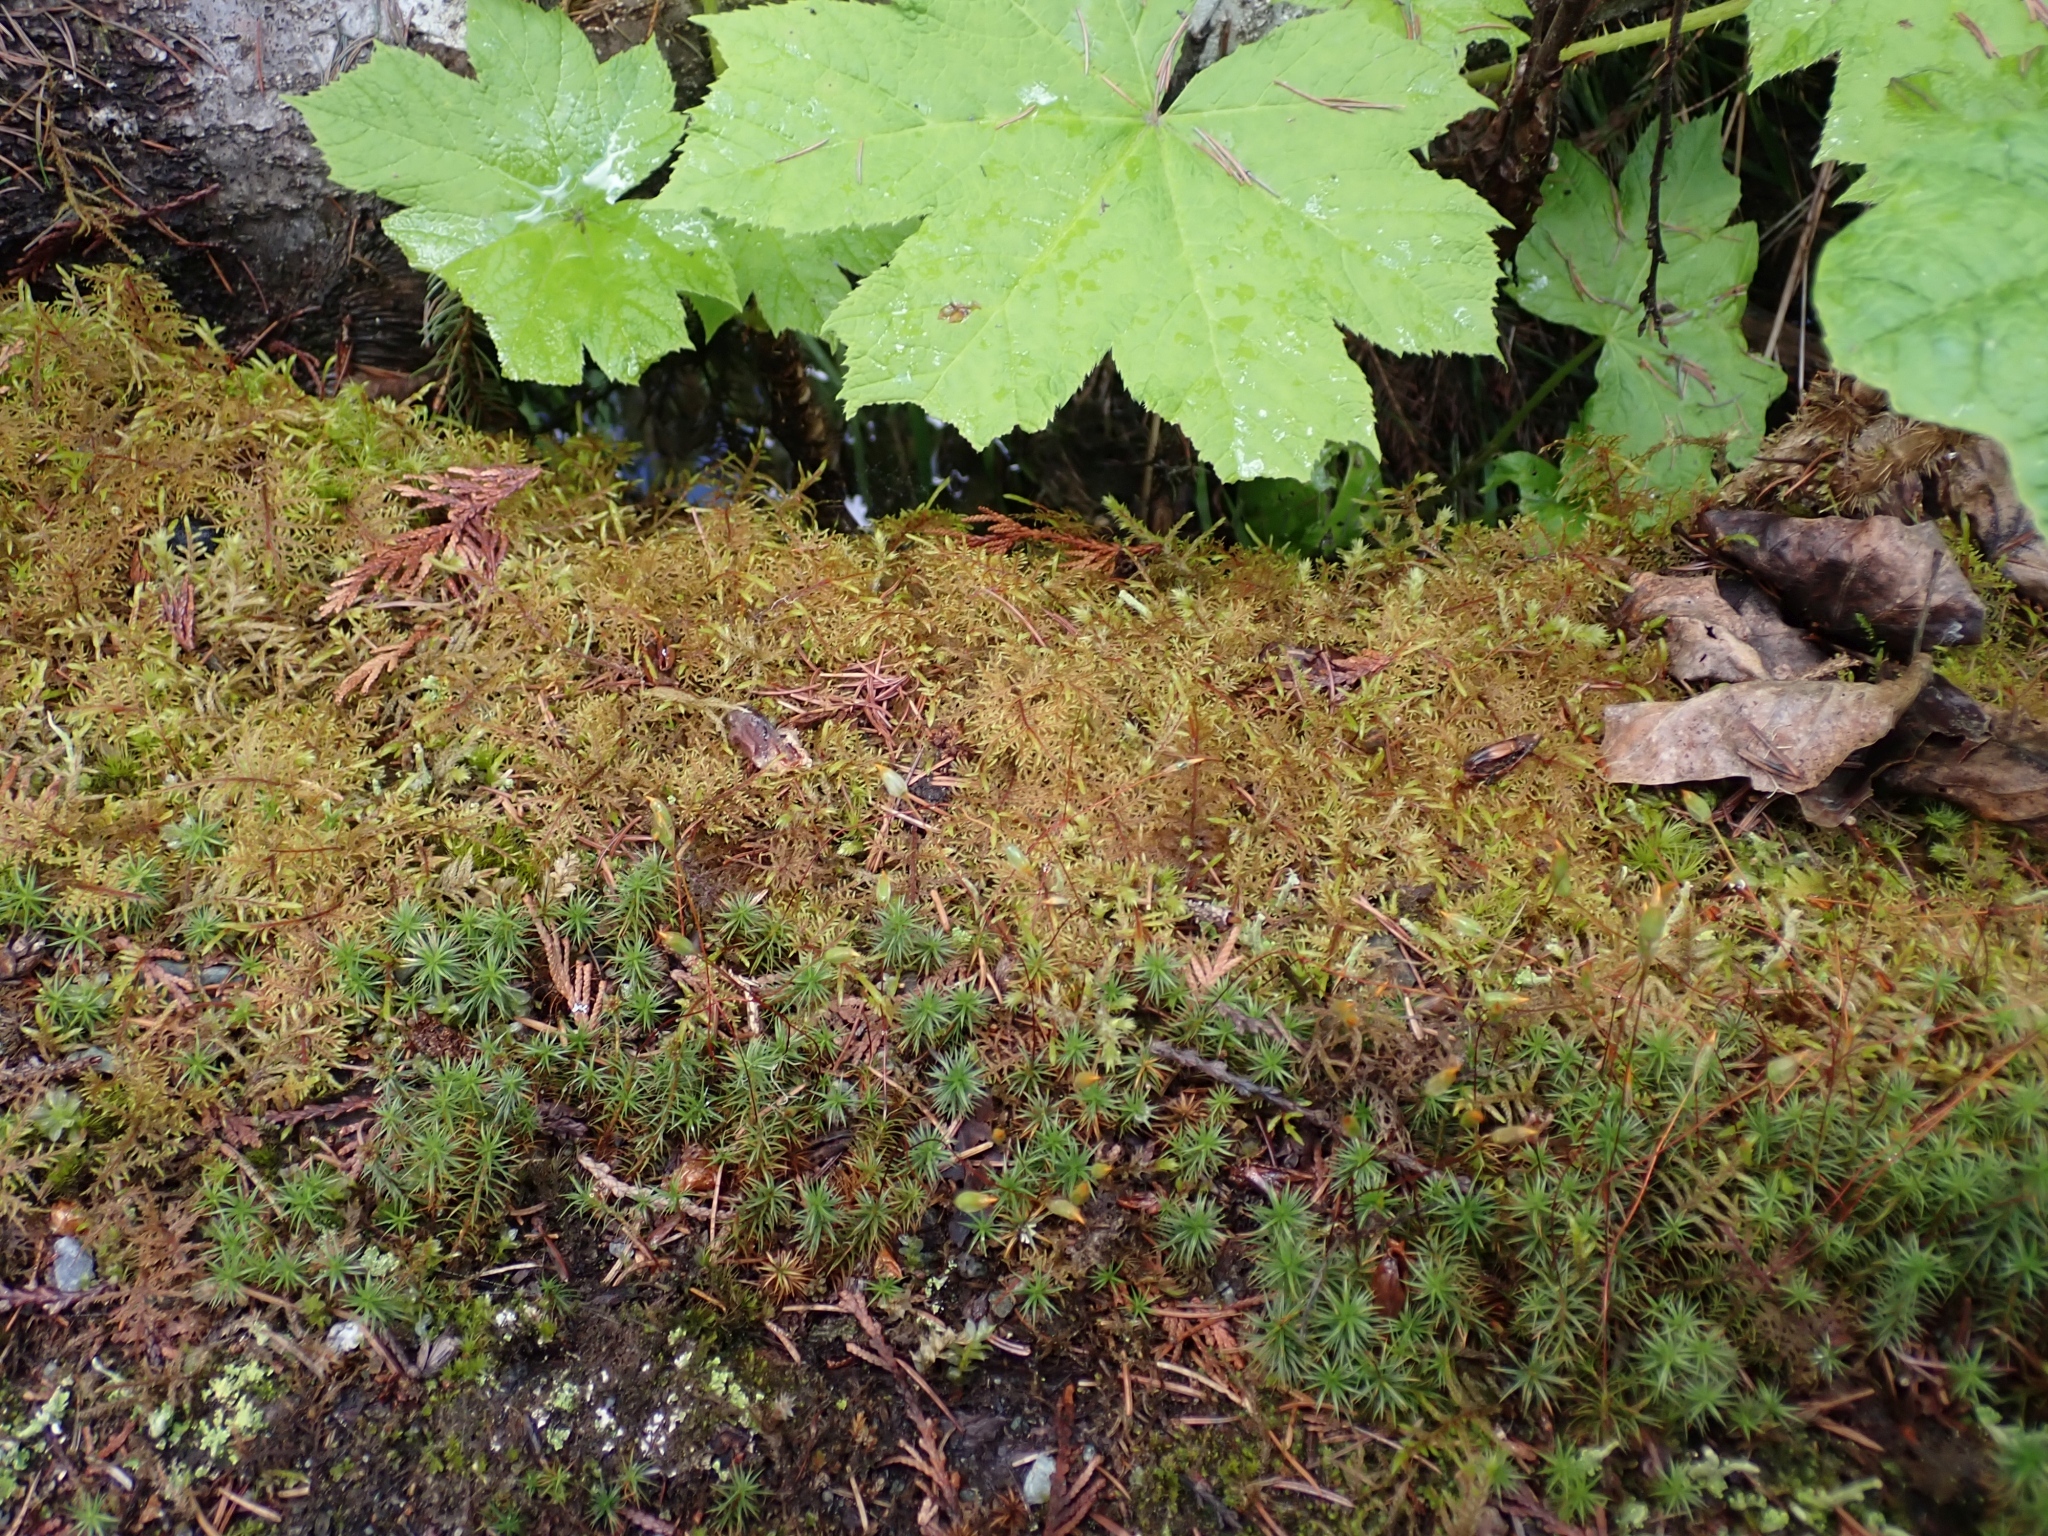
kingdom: Plantae
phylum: Bryophyta
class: Bryopsida
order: Hypnales
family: Hylocomiaceae
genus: Hylocomium
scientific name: Hylocomium splendens
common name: Stairstep moss
